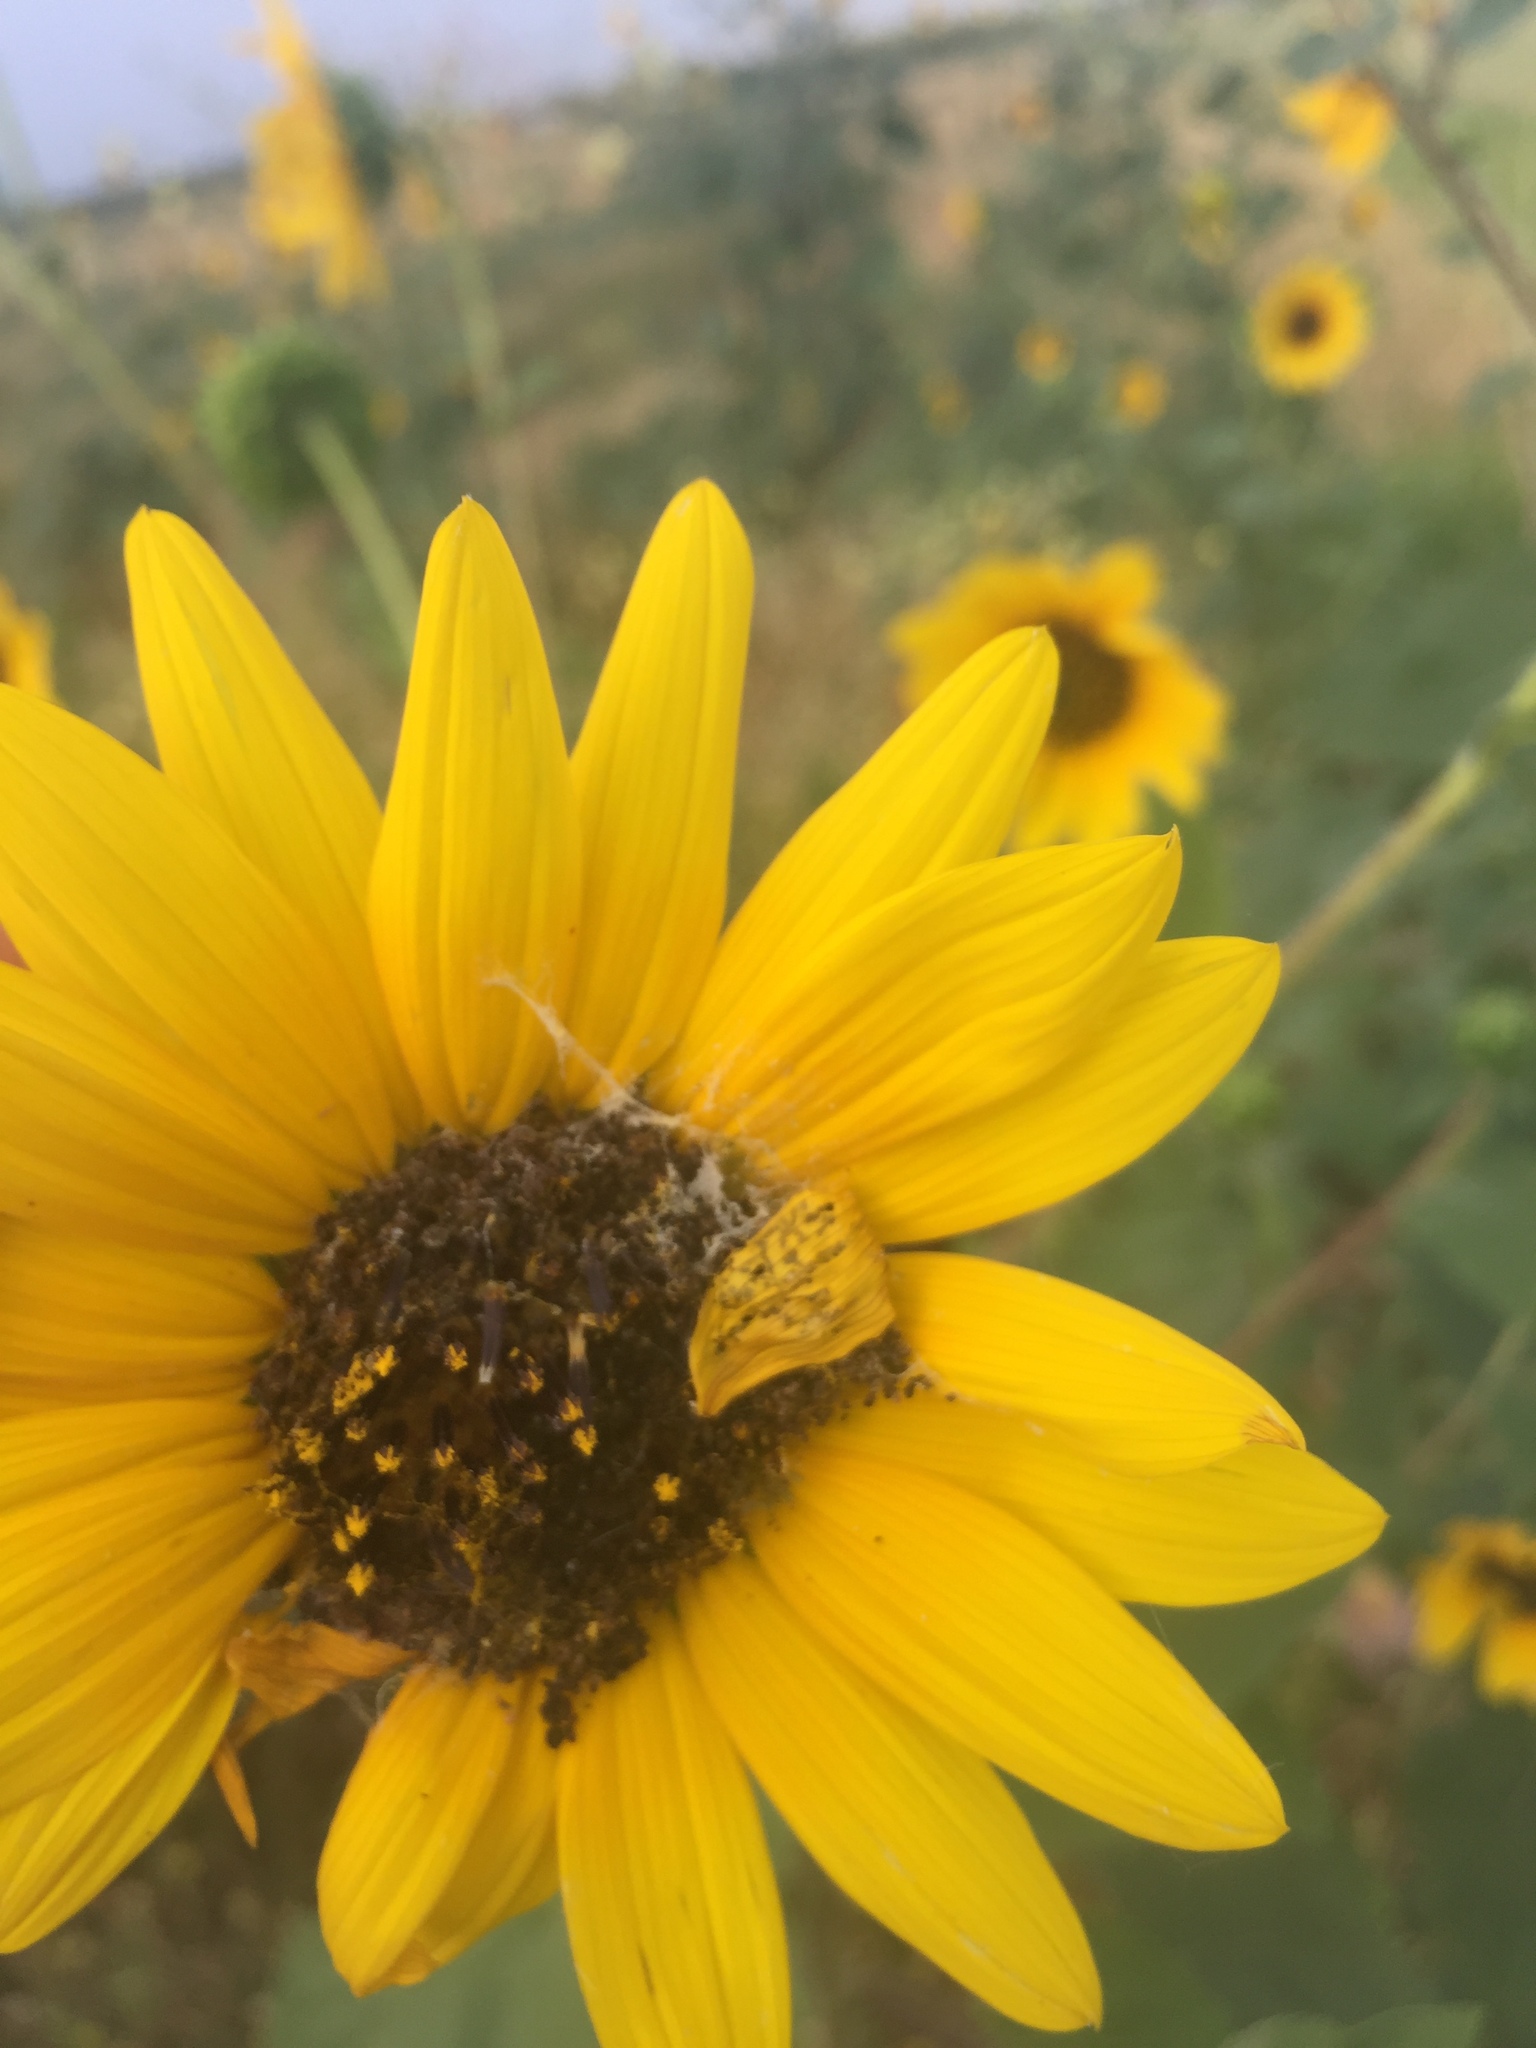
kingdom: Plantae
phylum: Tracheophyta
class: Magnoliopsida
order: Asterales
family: Asteraceae
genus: Helianthus
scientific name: Helianthus annuus
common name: Sunflower
